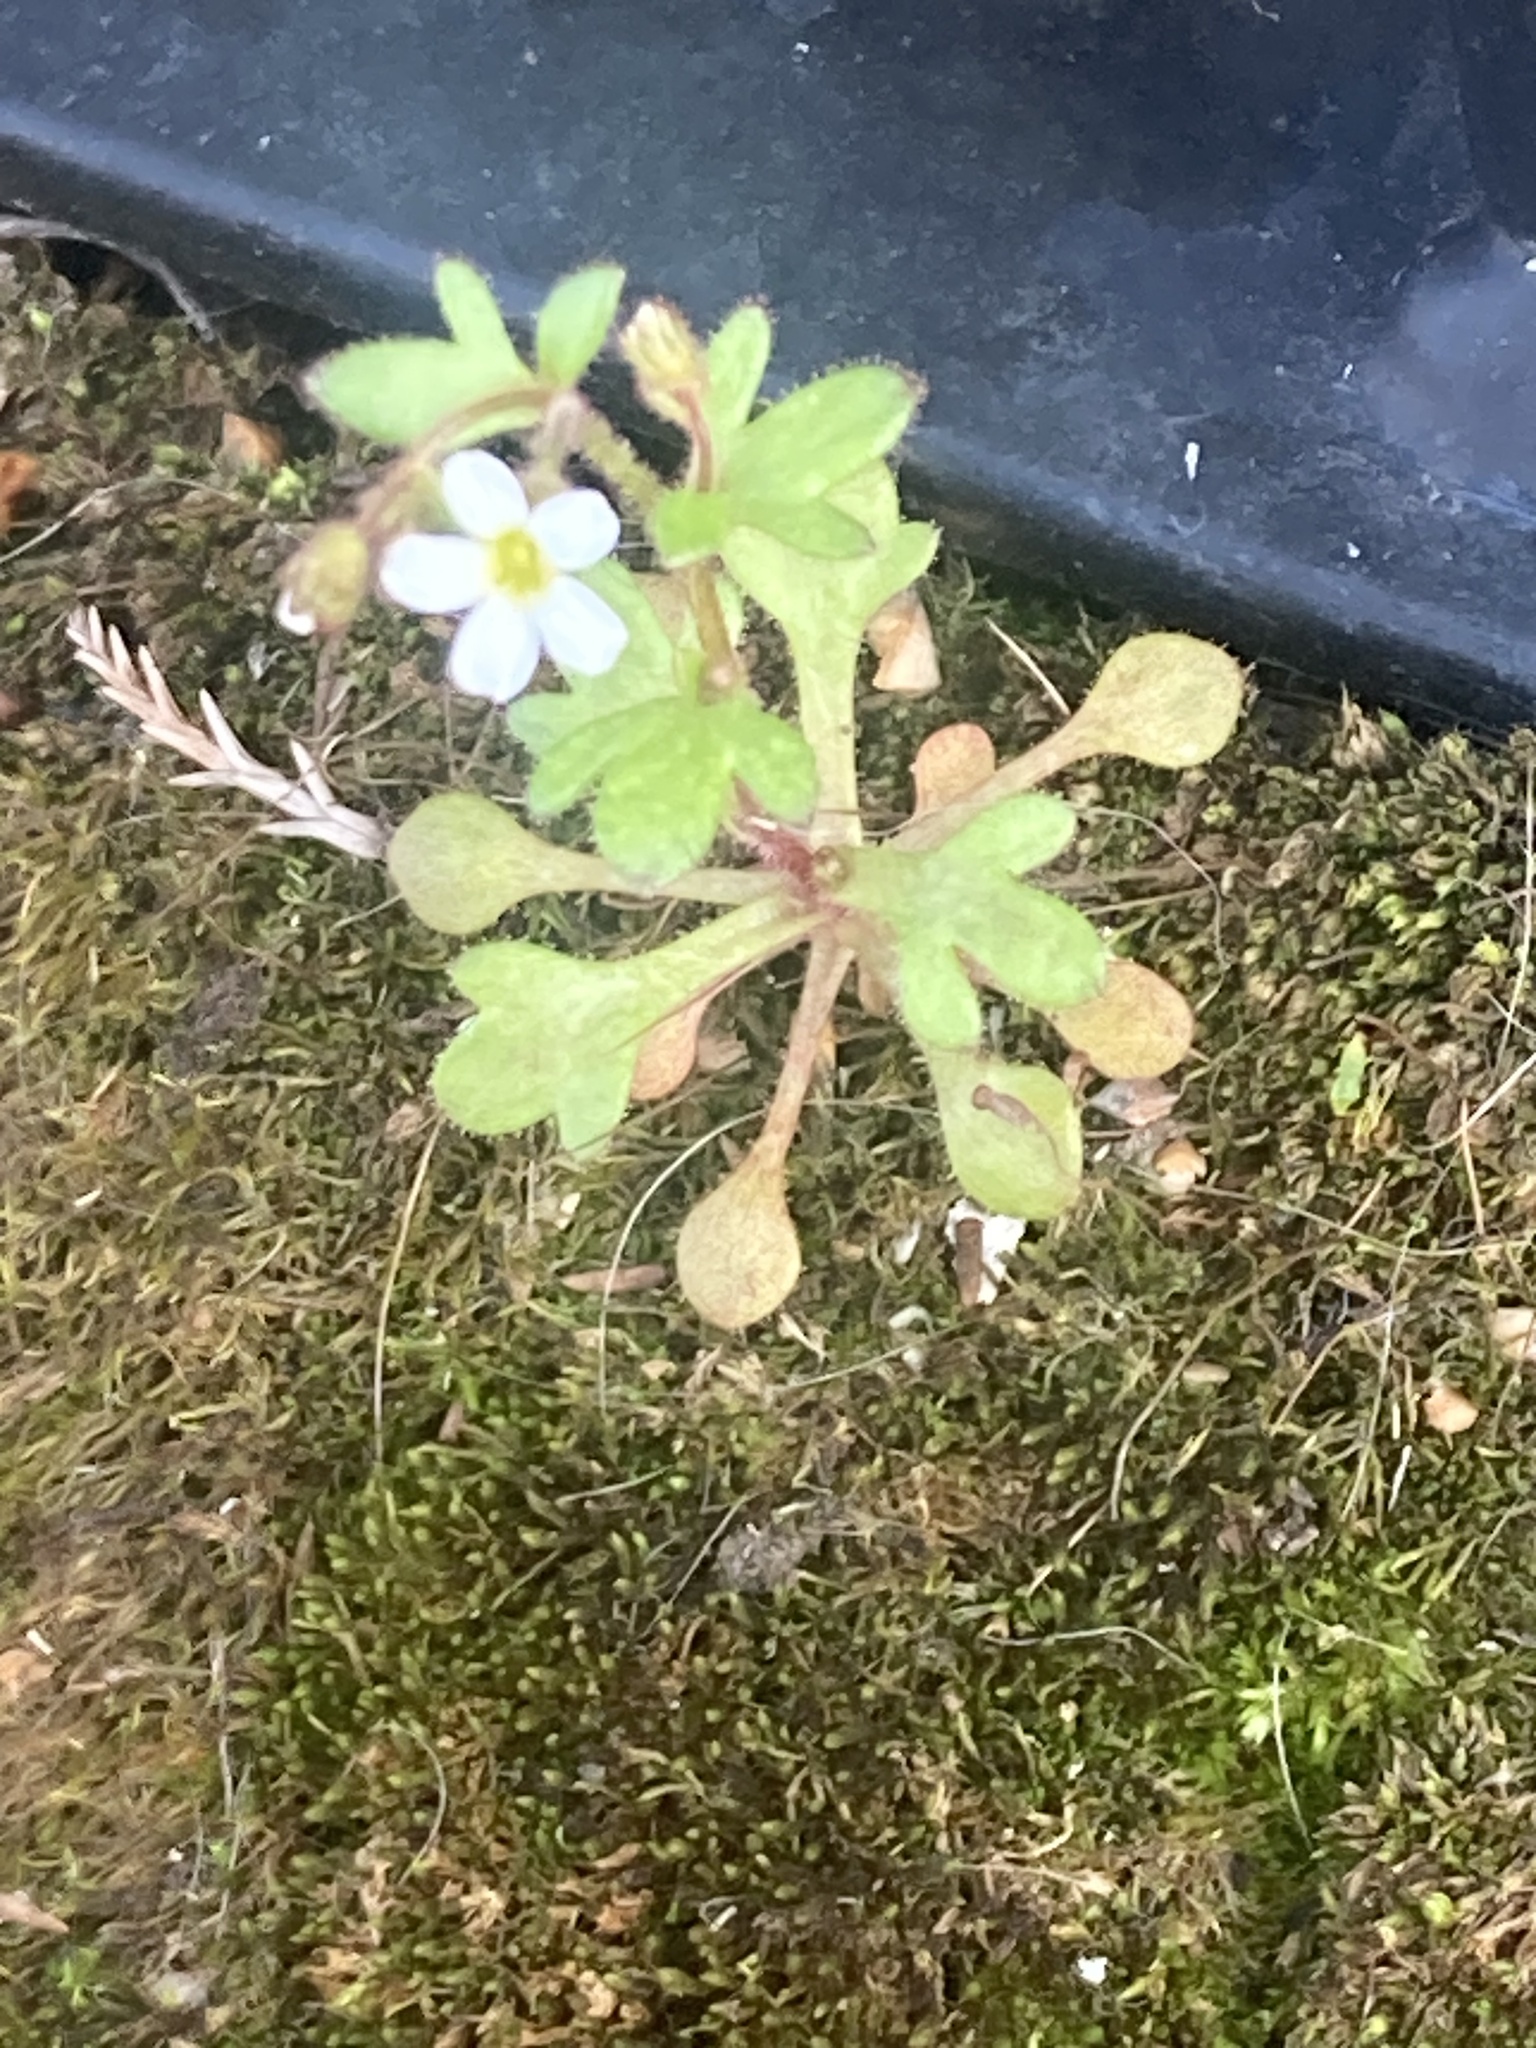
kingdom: Plantae
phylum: Tracheophyta
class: Magnoliopsida
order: Saxifragales
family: Saxifragaceae
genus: Saxifraga
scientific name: Saxifraga tridactylites
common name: Rue-leaved saxifrage
